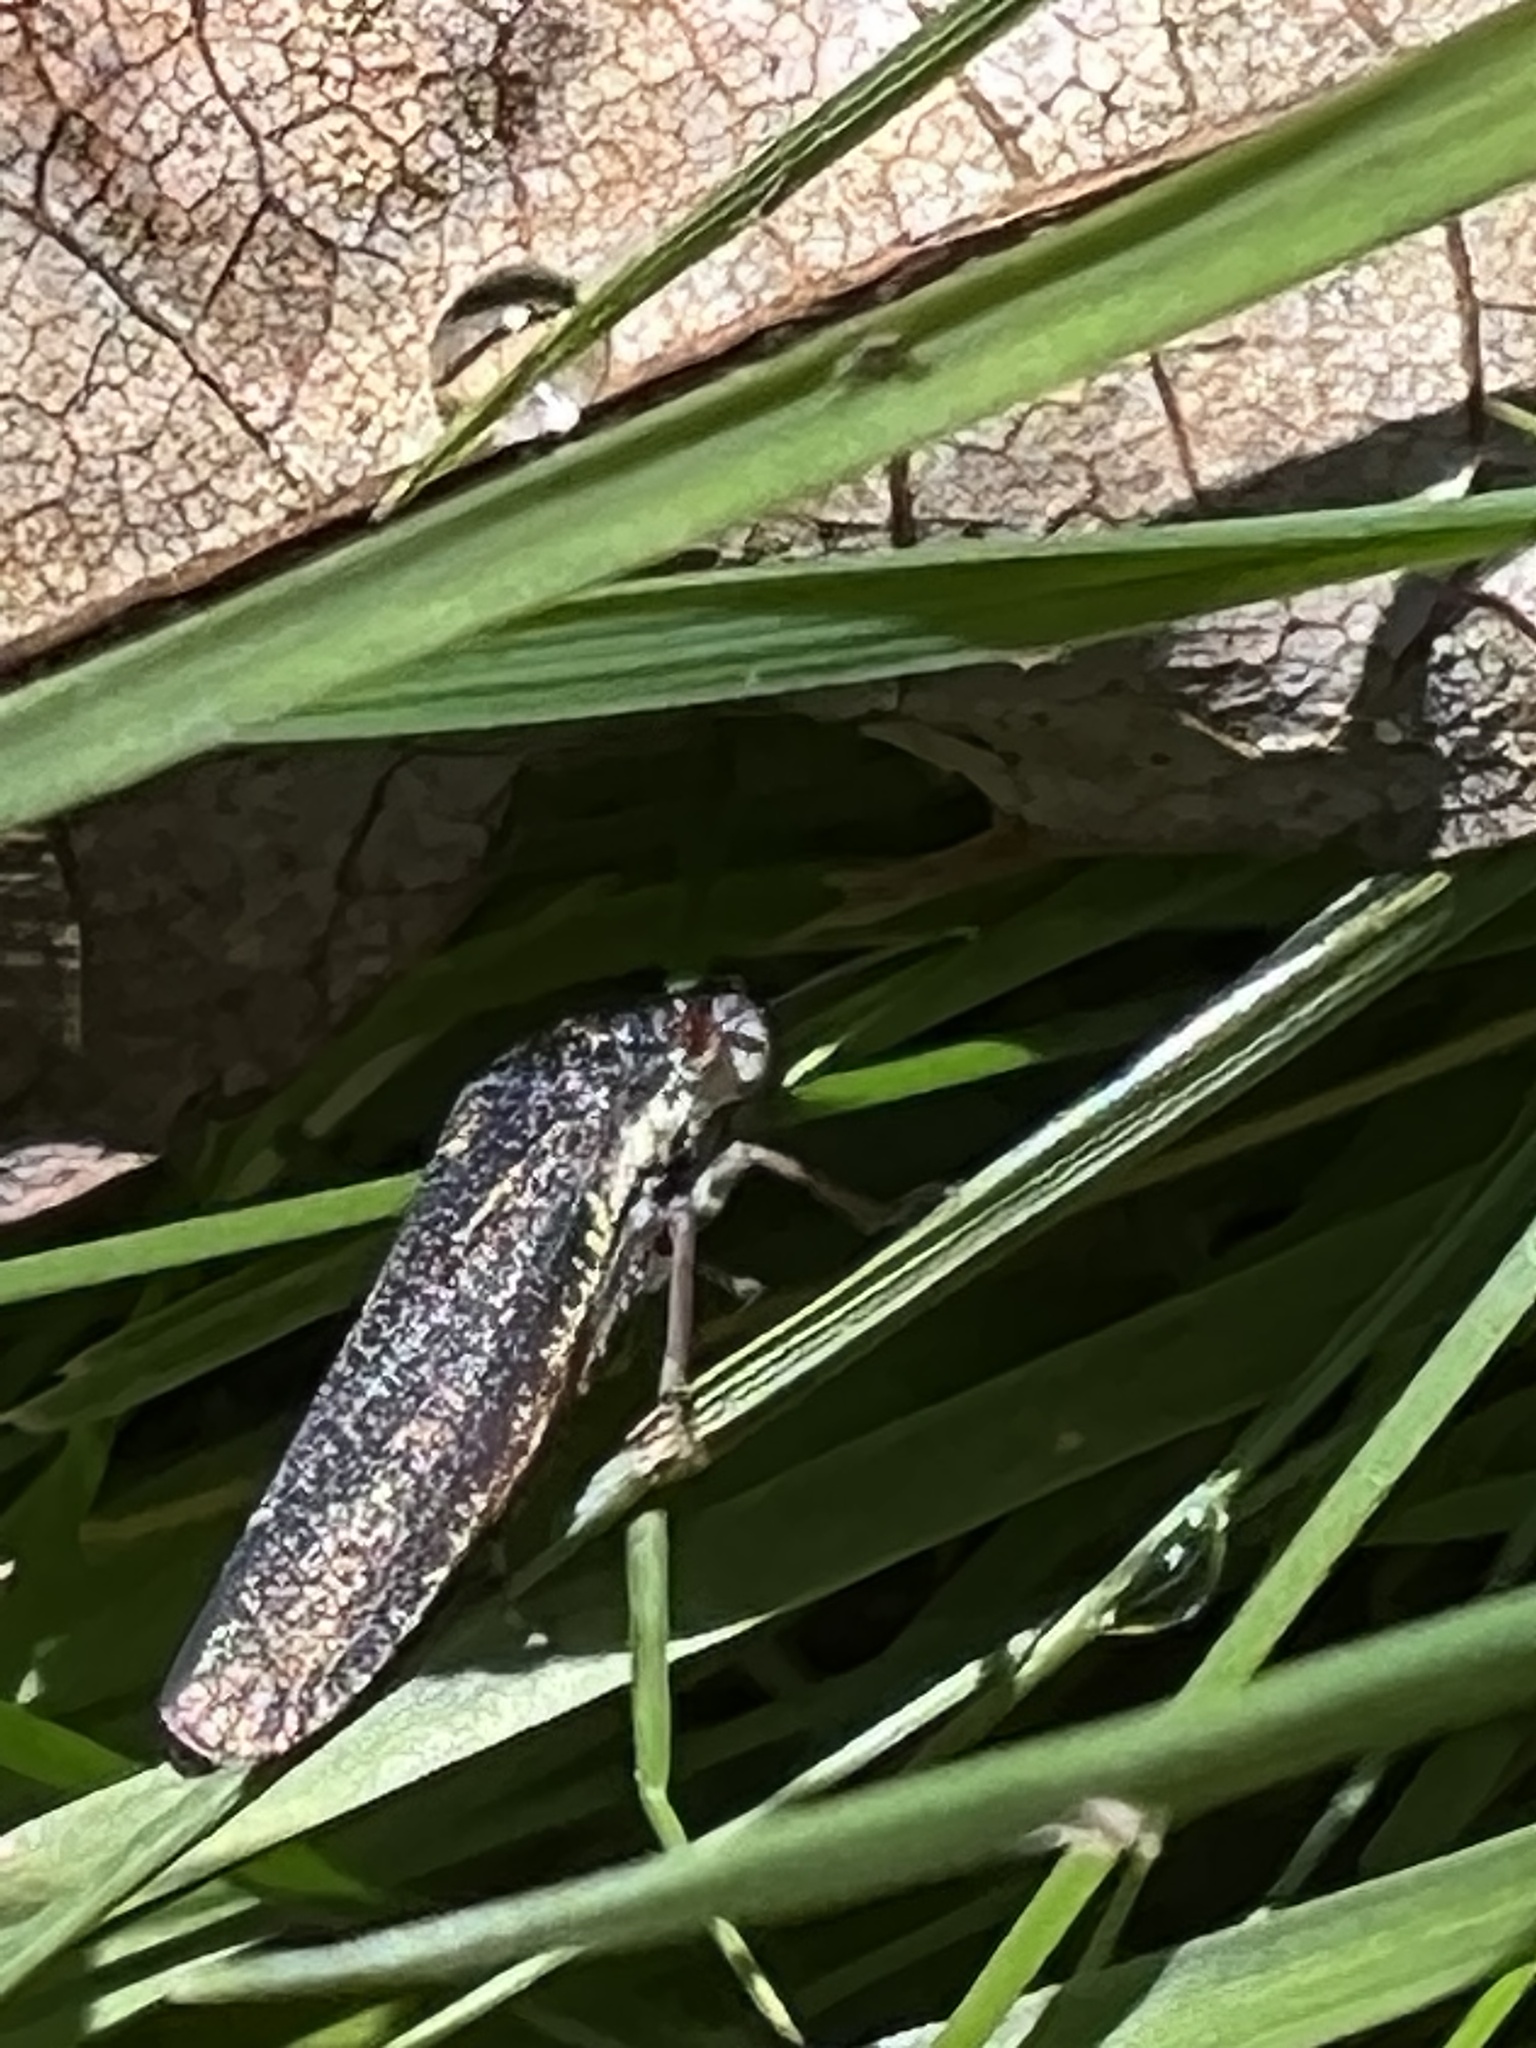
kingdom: Animalia
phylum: Arthropoda
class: Insecta
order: Hemiptera
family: Cicadellidae
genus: Paraulacizes
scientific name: Paraulacizes irrorata
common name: Speckled sharpshooter
